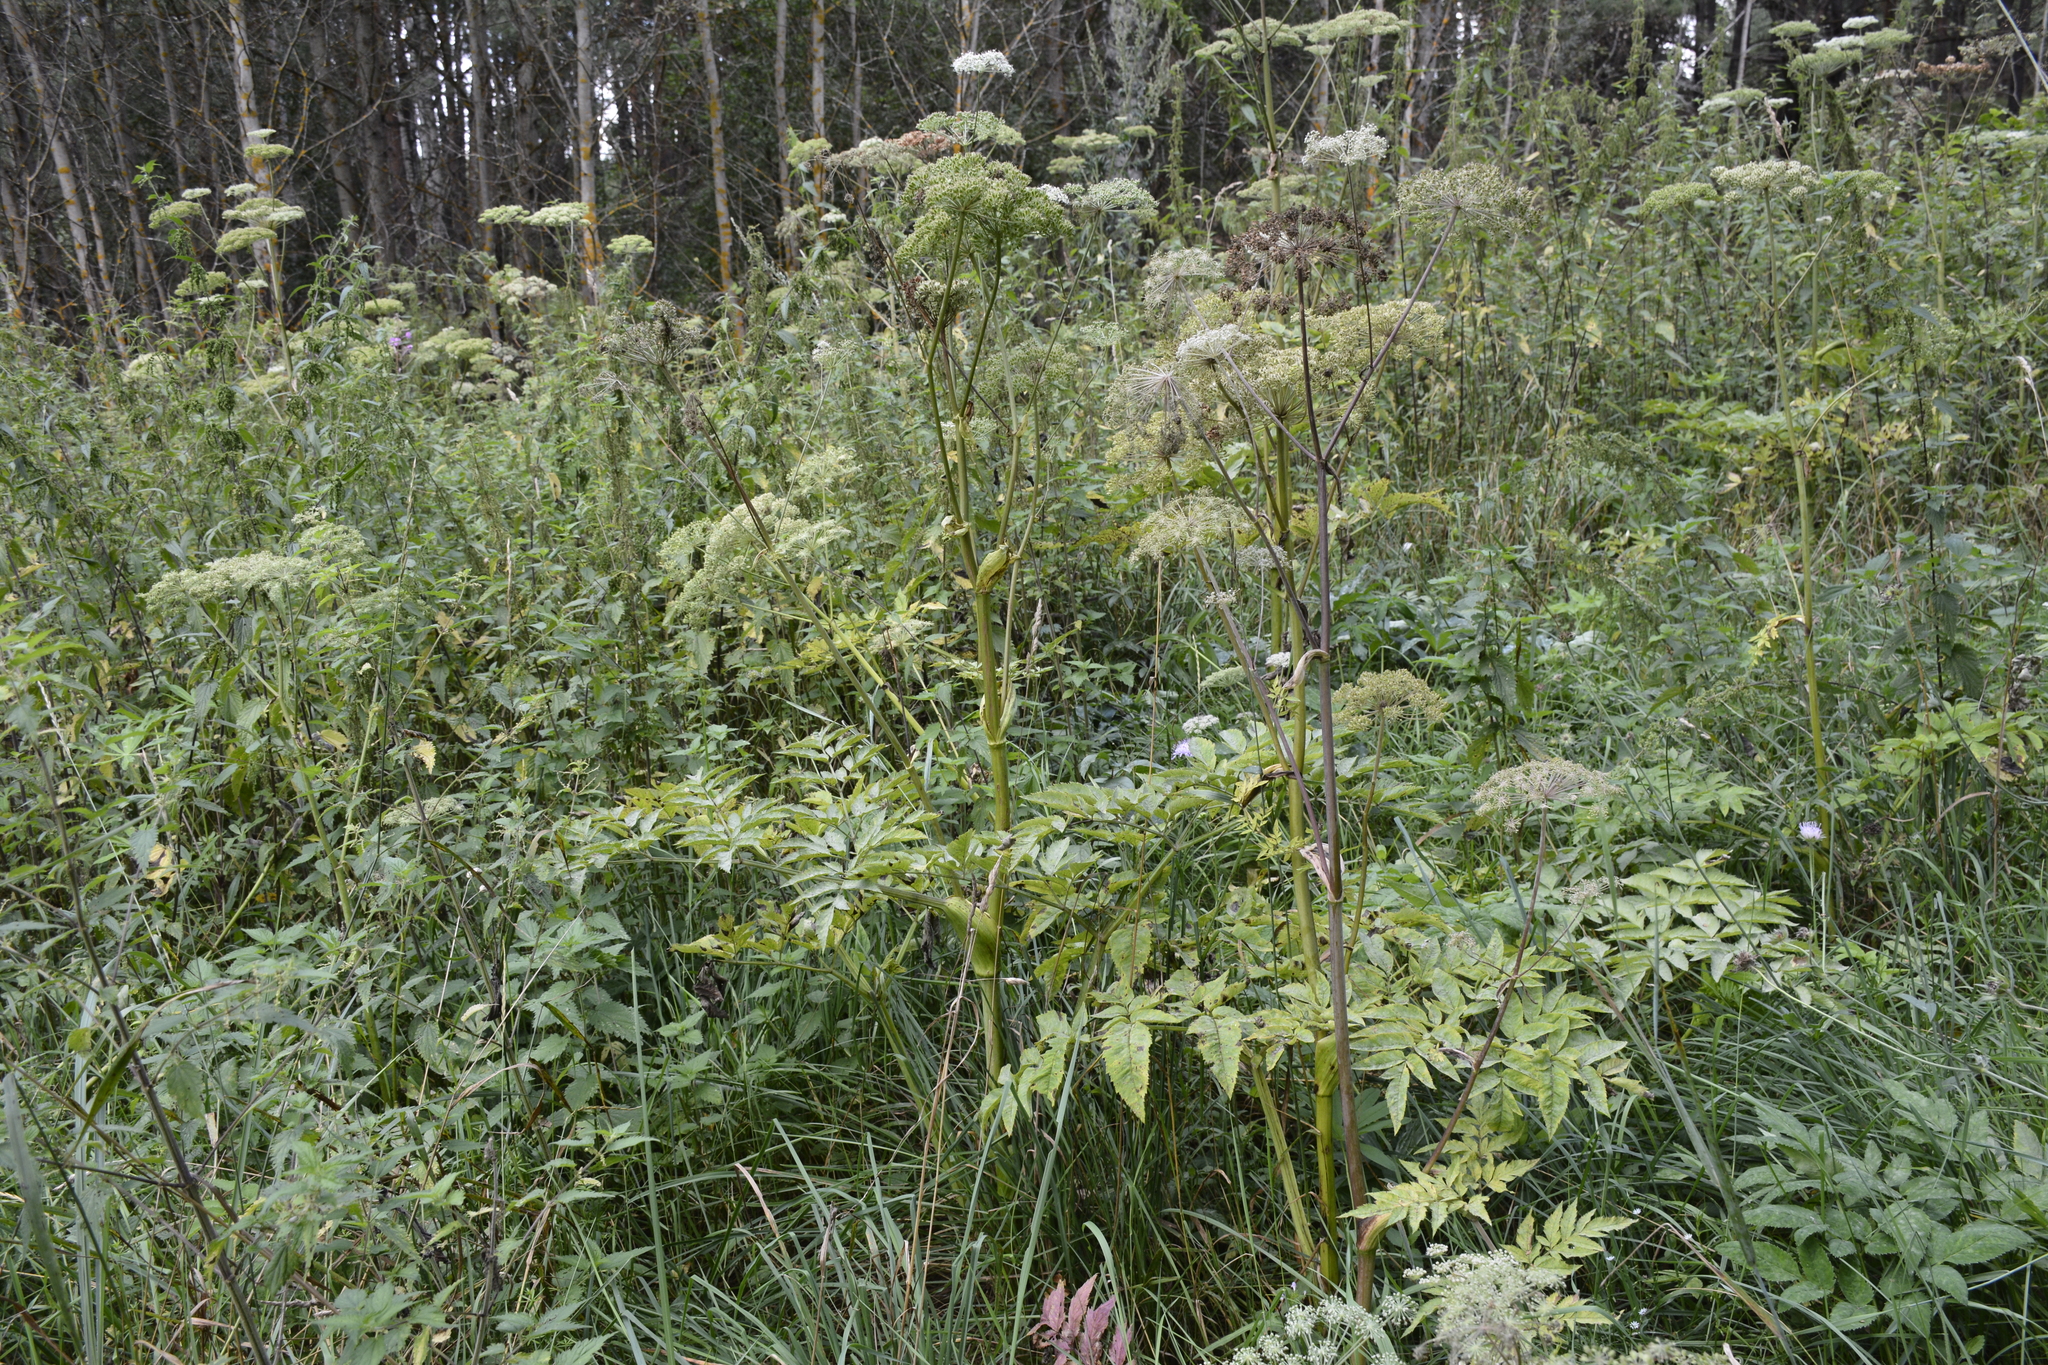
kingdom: Plantae
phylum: Tracheophyta
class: Magnoliopsida
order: Apiales
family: Apiaceae
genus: Angelica
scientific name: Angelica sylvestris
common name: Wild angelica
